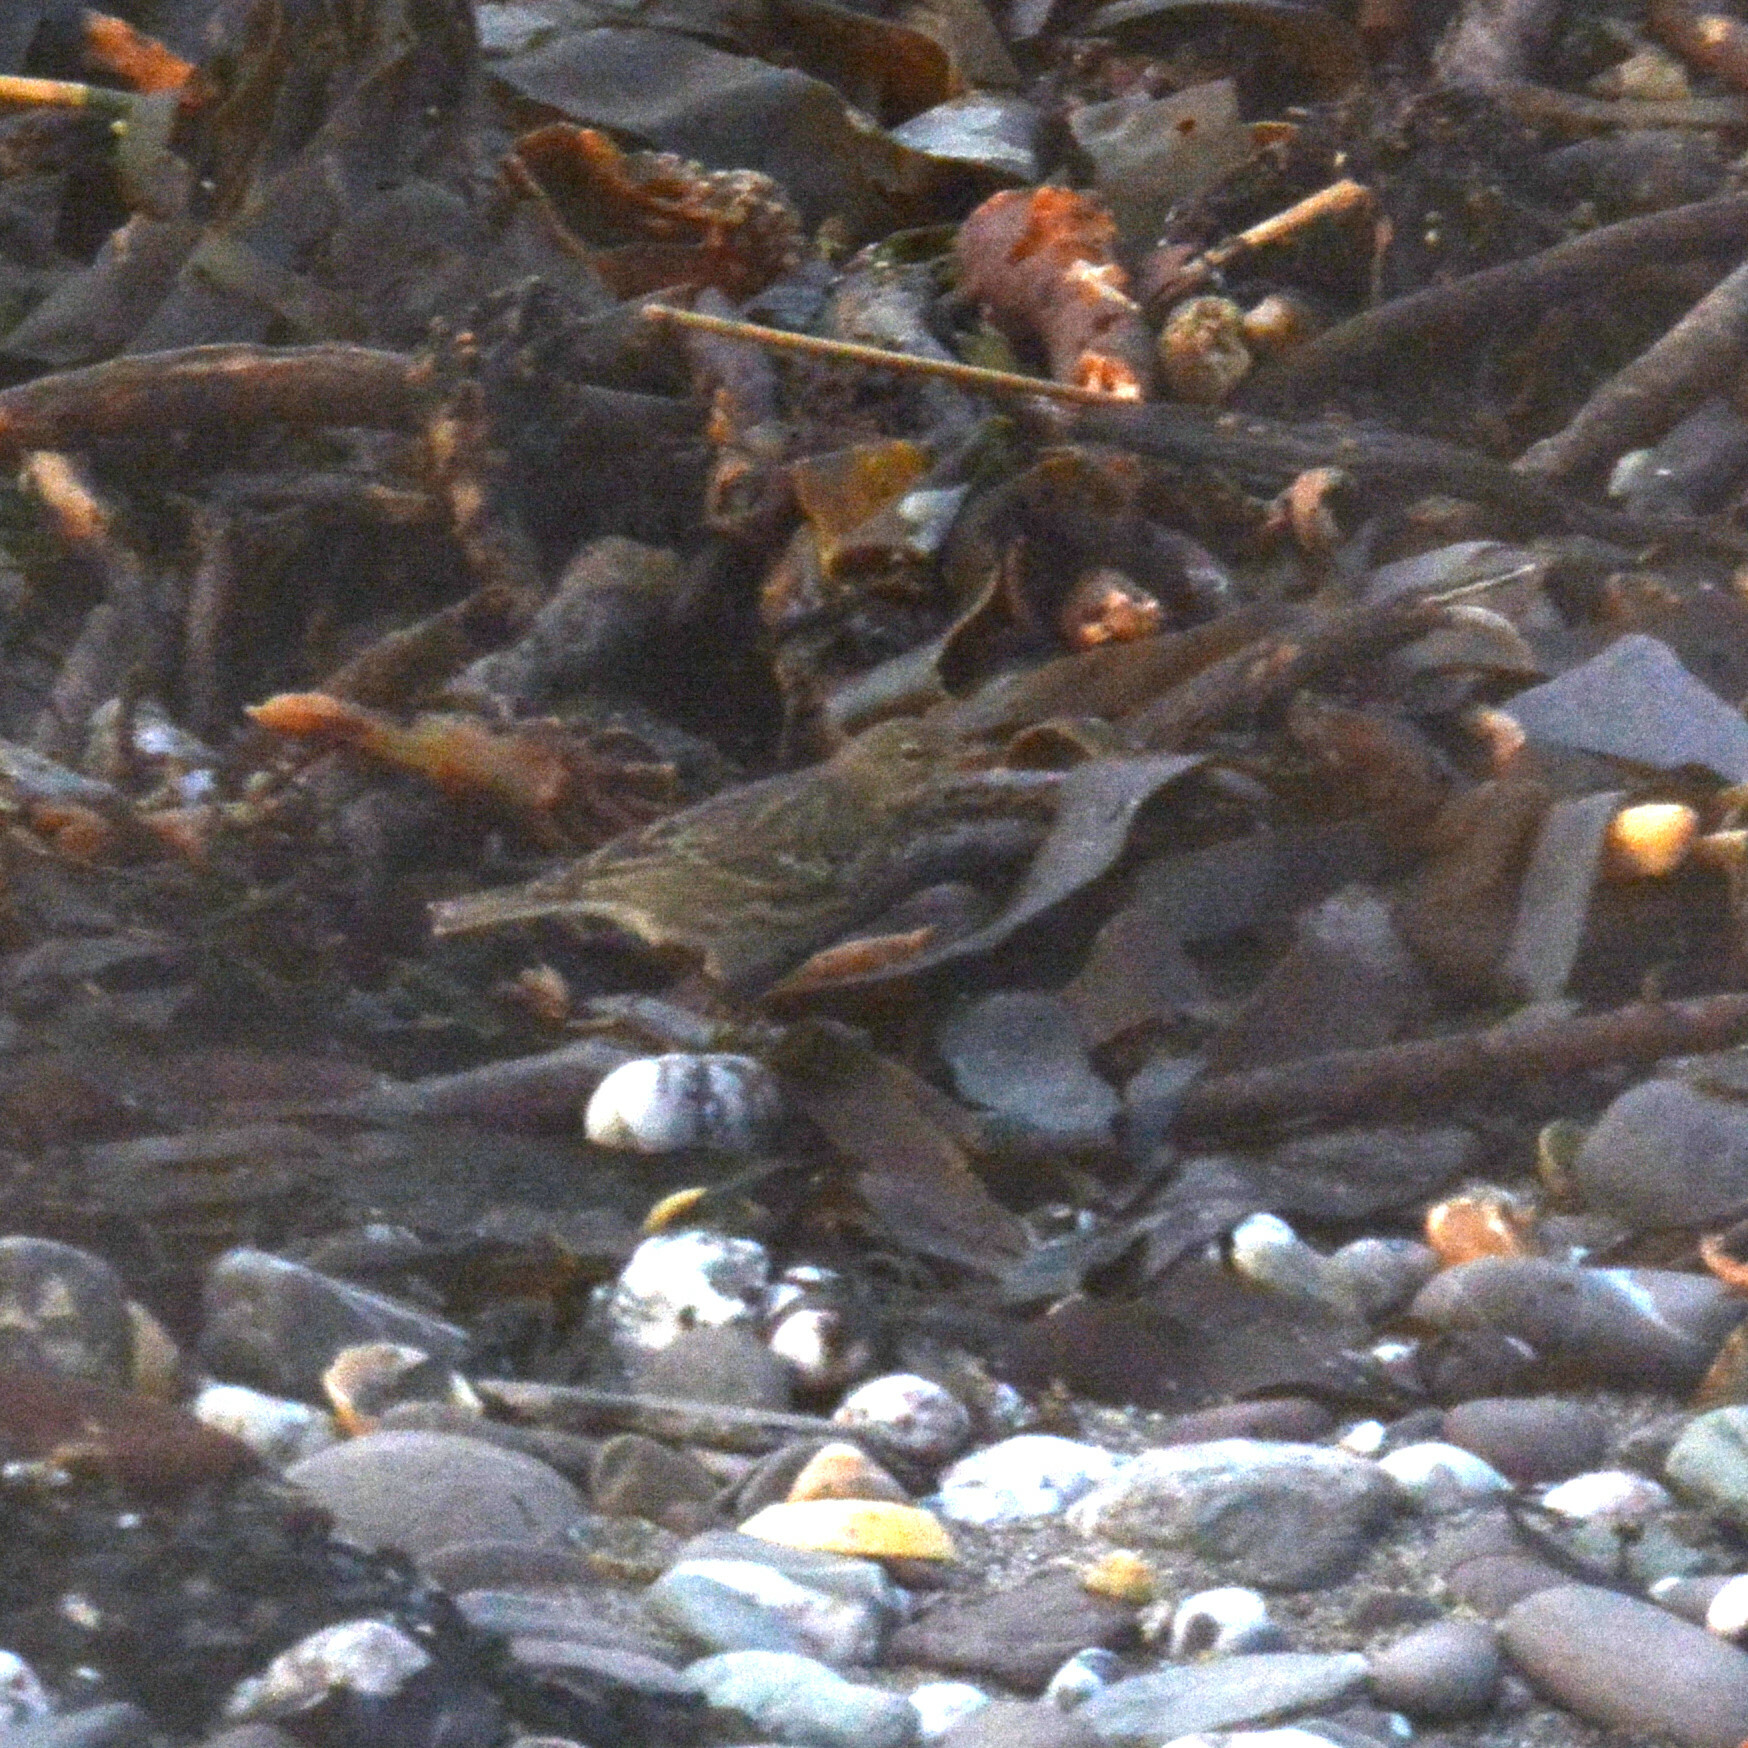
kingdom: Animalia
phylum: Chordata
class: Aves
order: Passeriformes
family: Motacillidae
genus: Anthus
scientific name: Anthus petrosus
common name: Eurasian rock pipit
